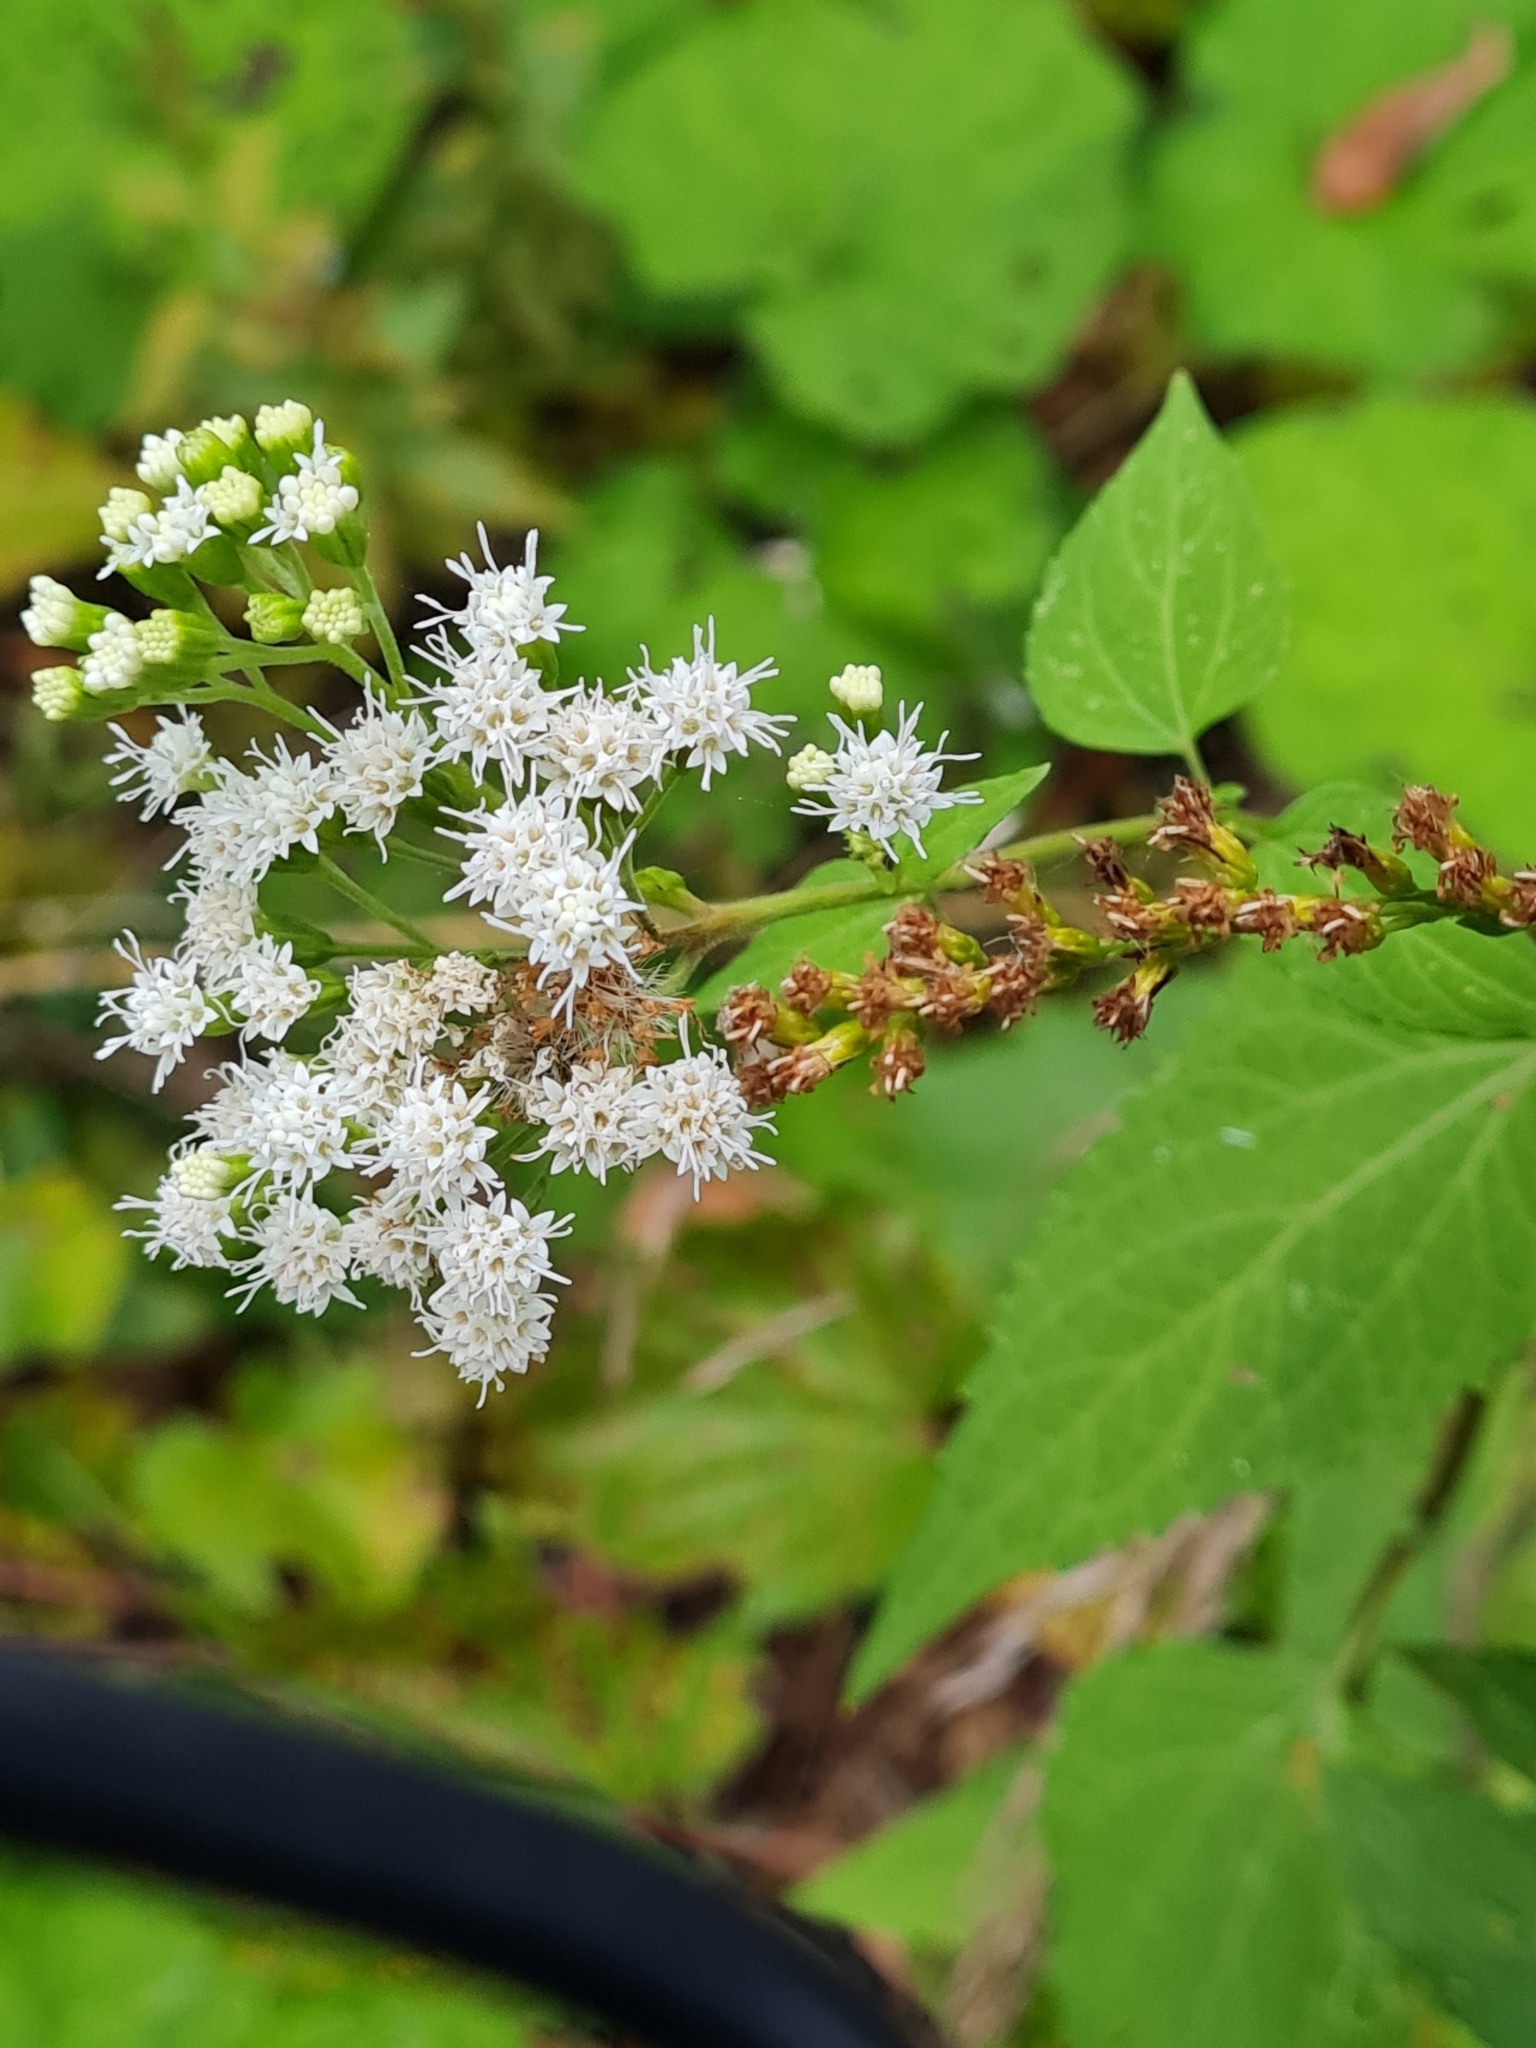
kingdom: Plantae
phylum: Tracheophyta
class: Magnoliopsida
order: Asterales
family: Asteraceae
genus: Ageratina
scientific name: Ageratina altissima
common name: White snakeroot
